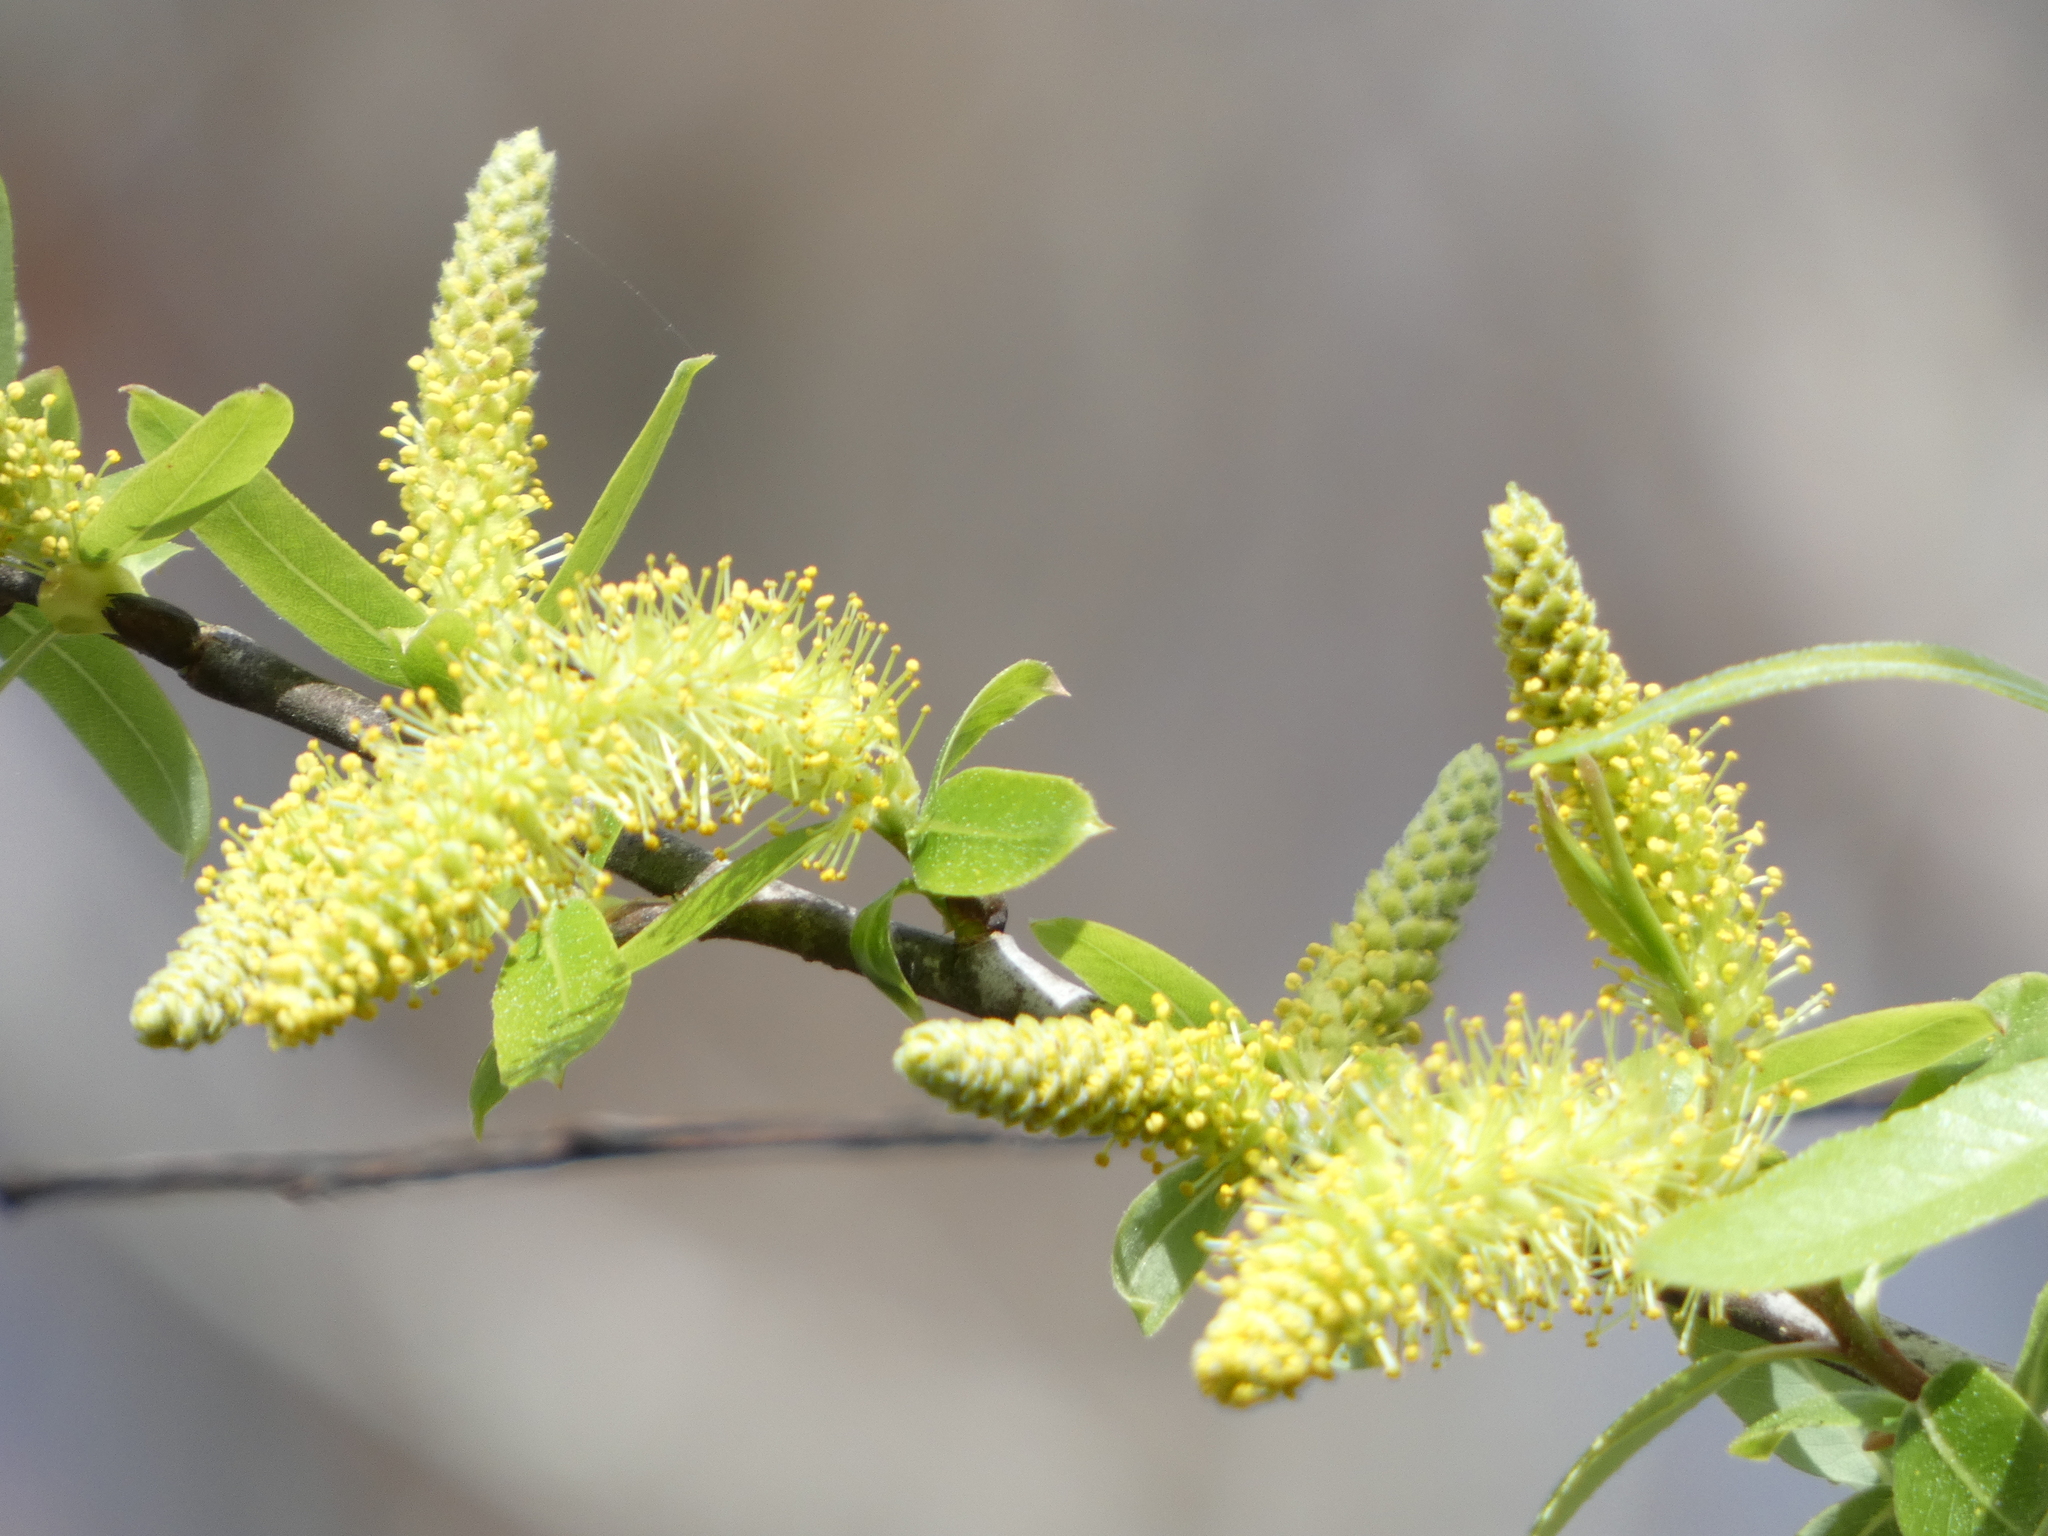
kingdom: Plantae
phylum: Tracheophyta
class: Magnoliopsida
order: Malpighiales
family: Salicaceae
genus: Salix
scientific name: Salix caroliniana
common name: Carolina willow
